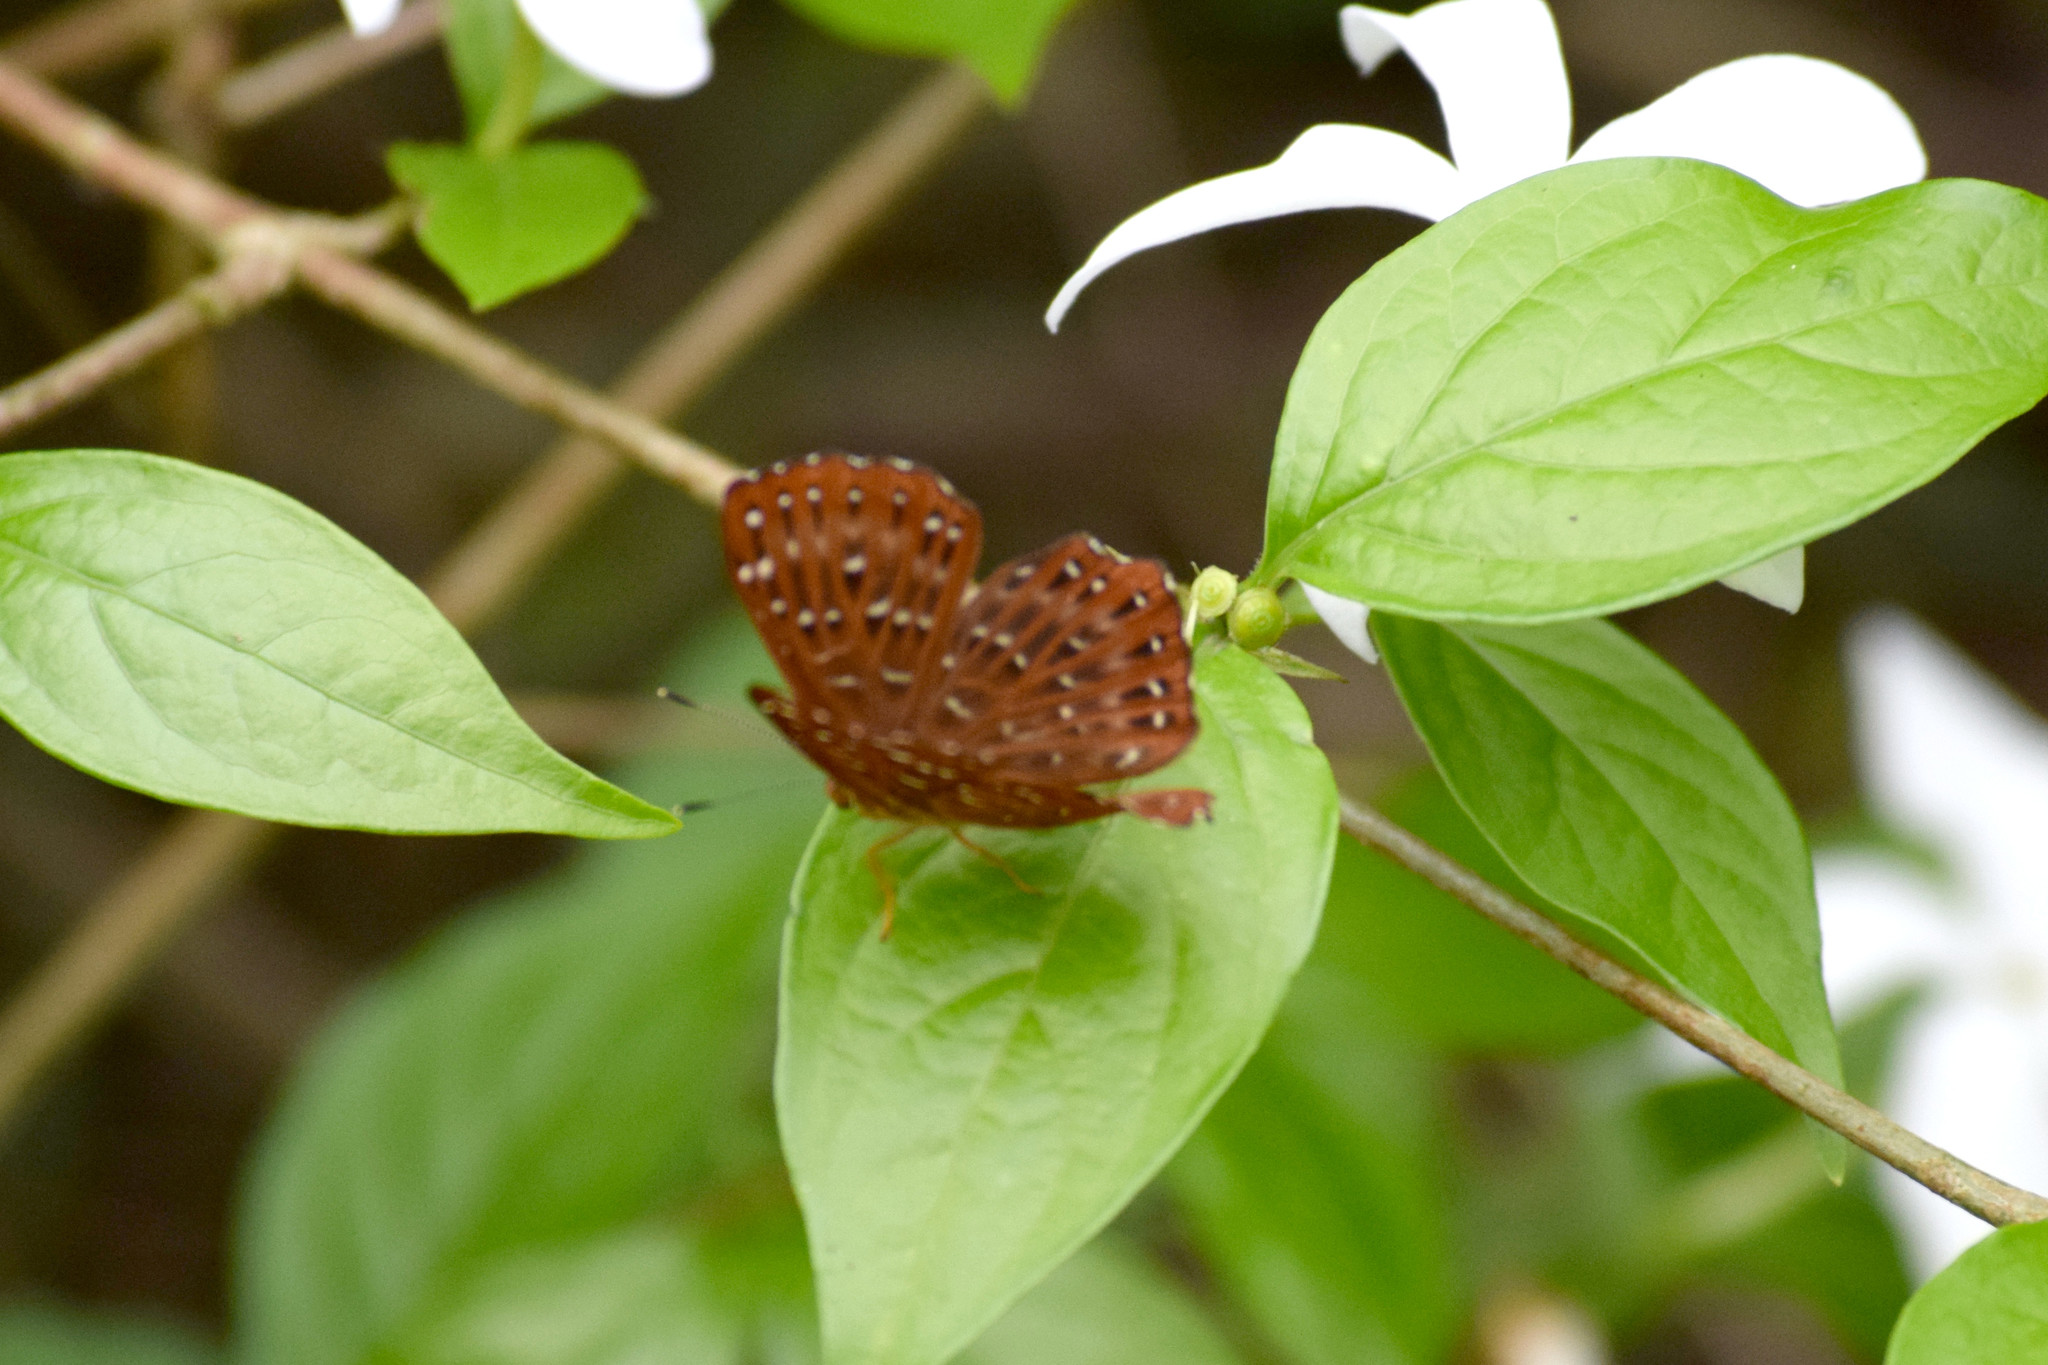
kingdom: Animalia
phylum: Arthropoda
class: Insecta
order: Lepidoptera
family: Riodinidae
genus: Zemeros
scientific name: Zemeros flegyas
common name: Punchinello
